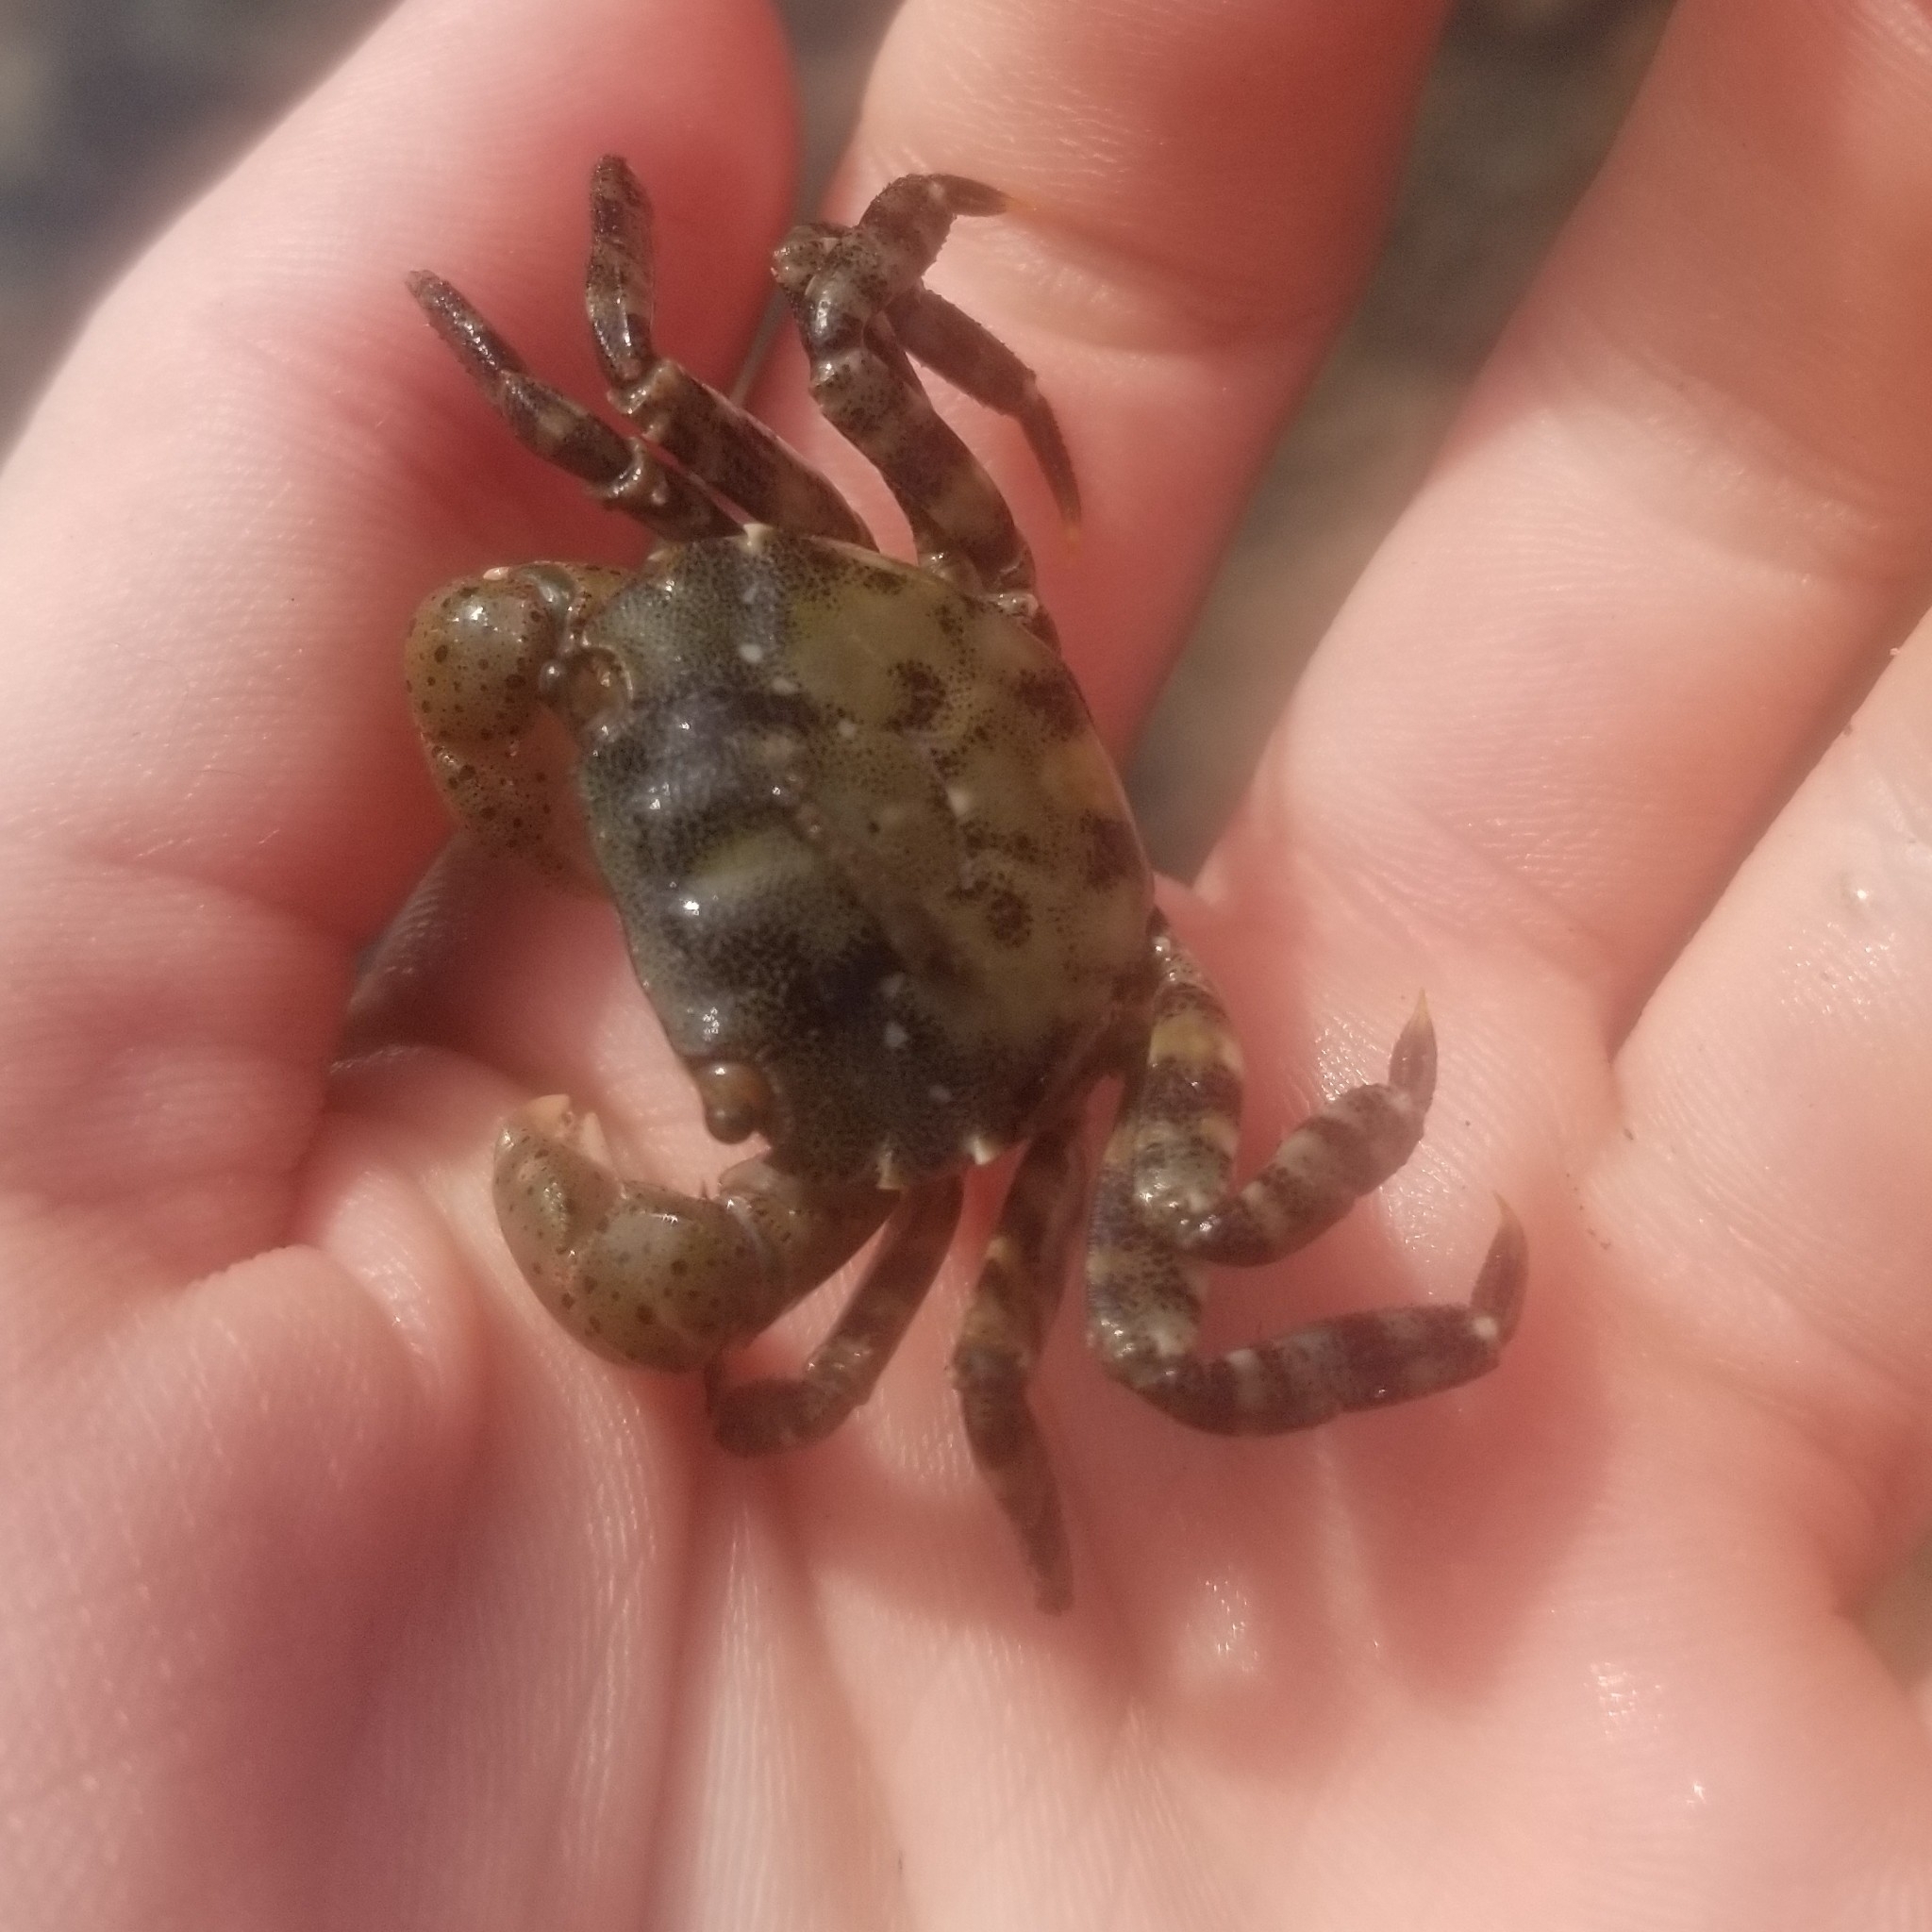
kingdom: Animalia
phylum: Arthropoda
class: Malacostraca
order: Decapoda
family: Varunidae
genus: Hemigrapsus
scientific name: Hemigrapsus sanguineus
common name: Asian shore crab
